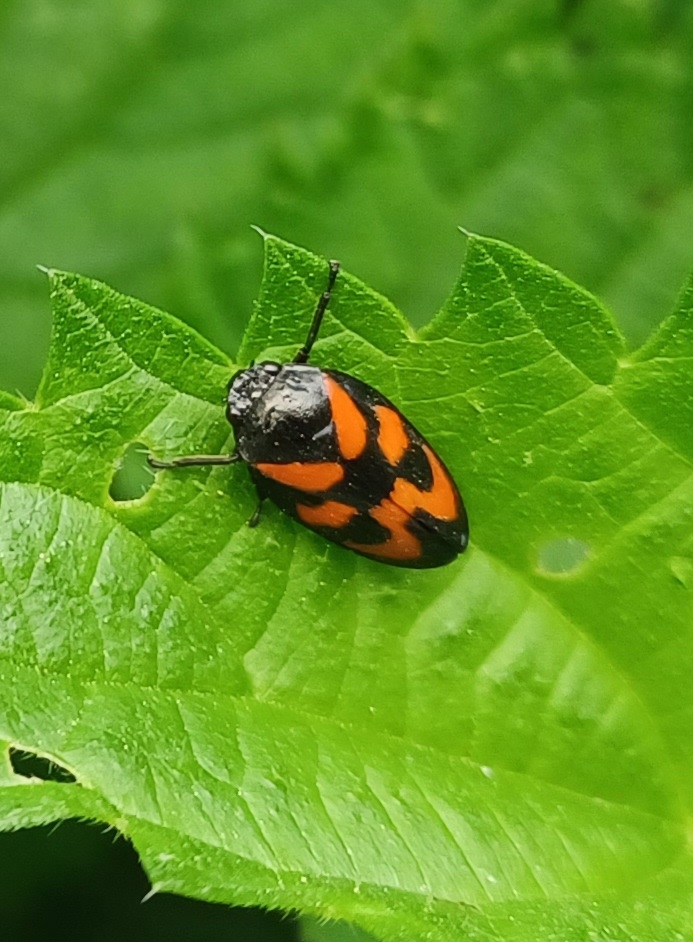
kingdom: Animalia
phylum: Arthropoda
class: Insecta
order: Hemiptera
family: Cercopidae
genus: Cercopis
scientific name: Cercopis vulnerata
